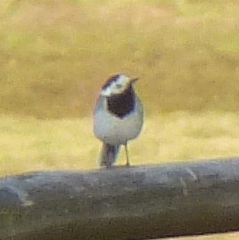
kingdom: Animalia
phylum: Chordata
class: Aves
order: Passeriformes
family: Motacillidae
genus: Motacilla
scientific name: Motacilla alba
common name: White wagtail
